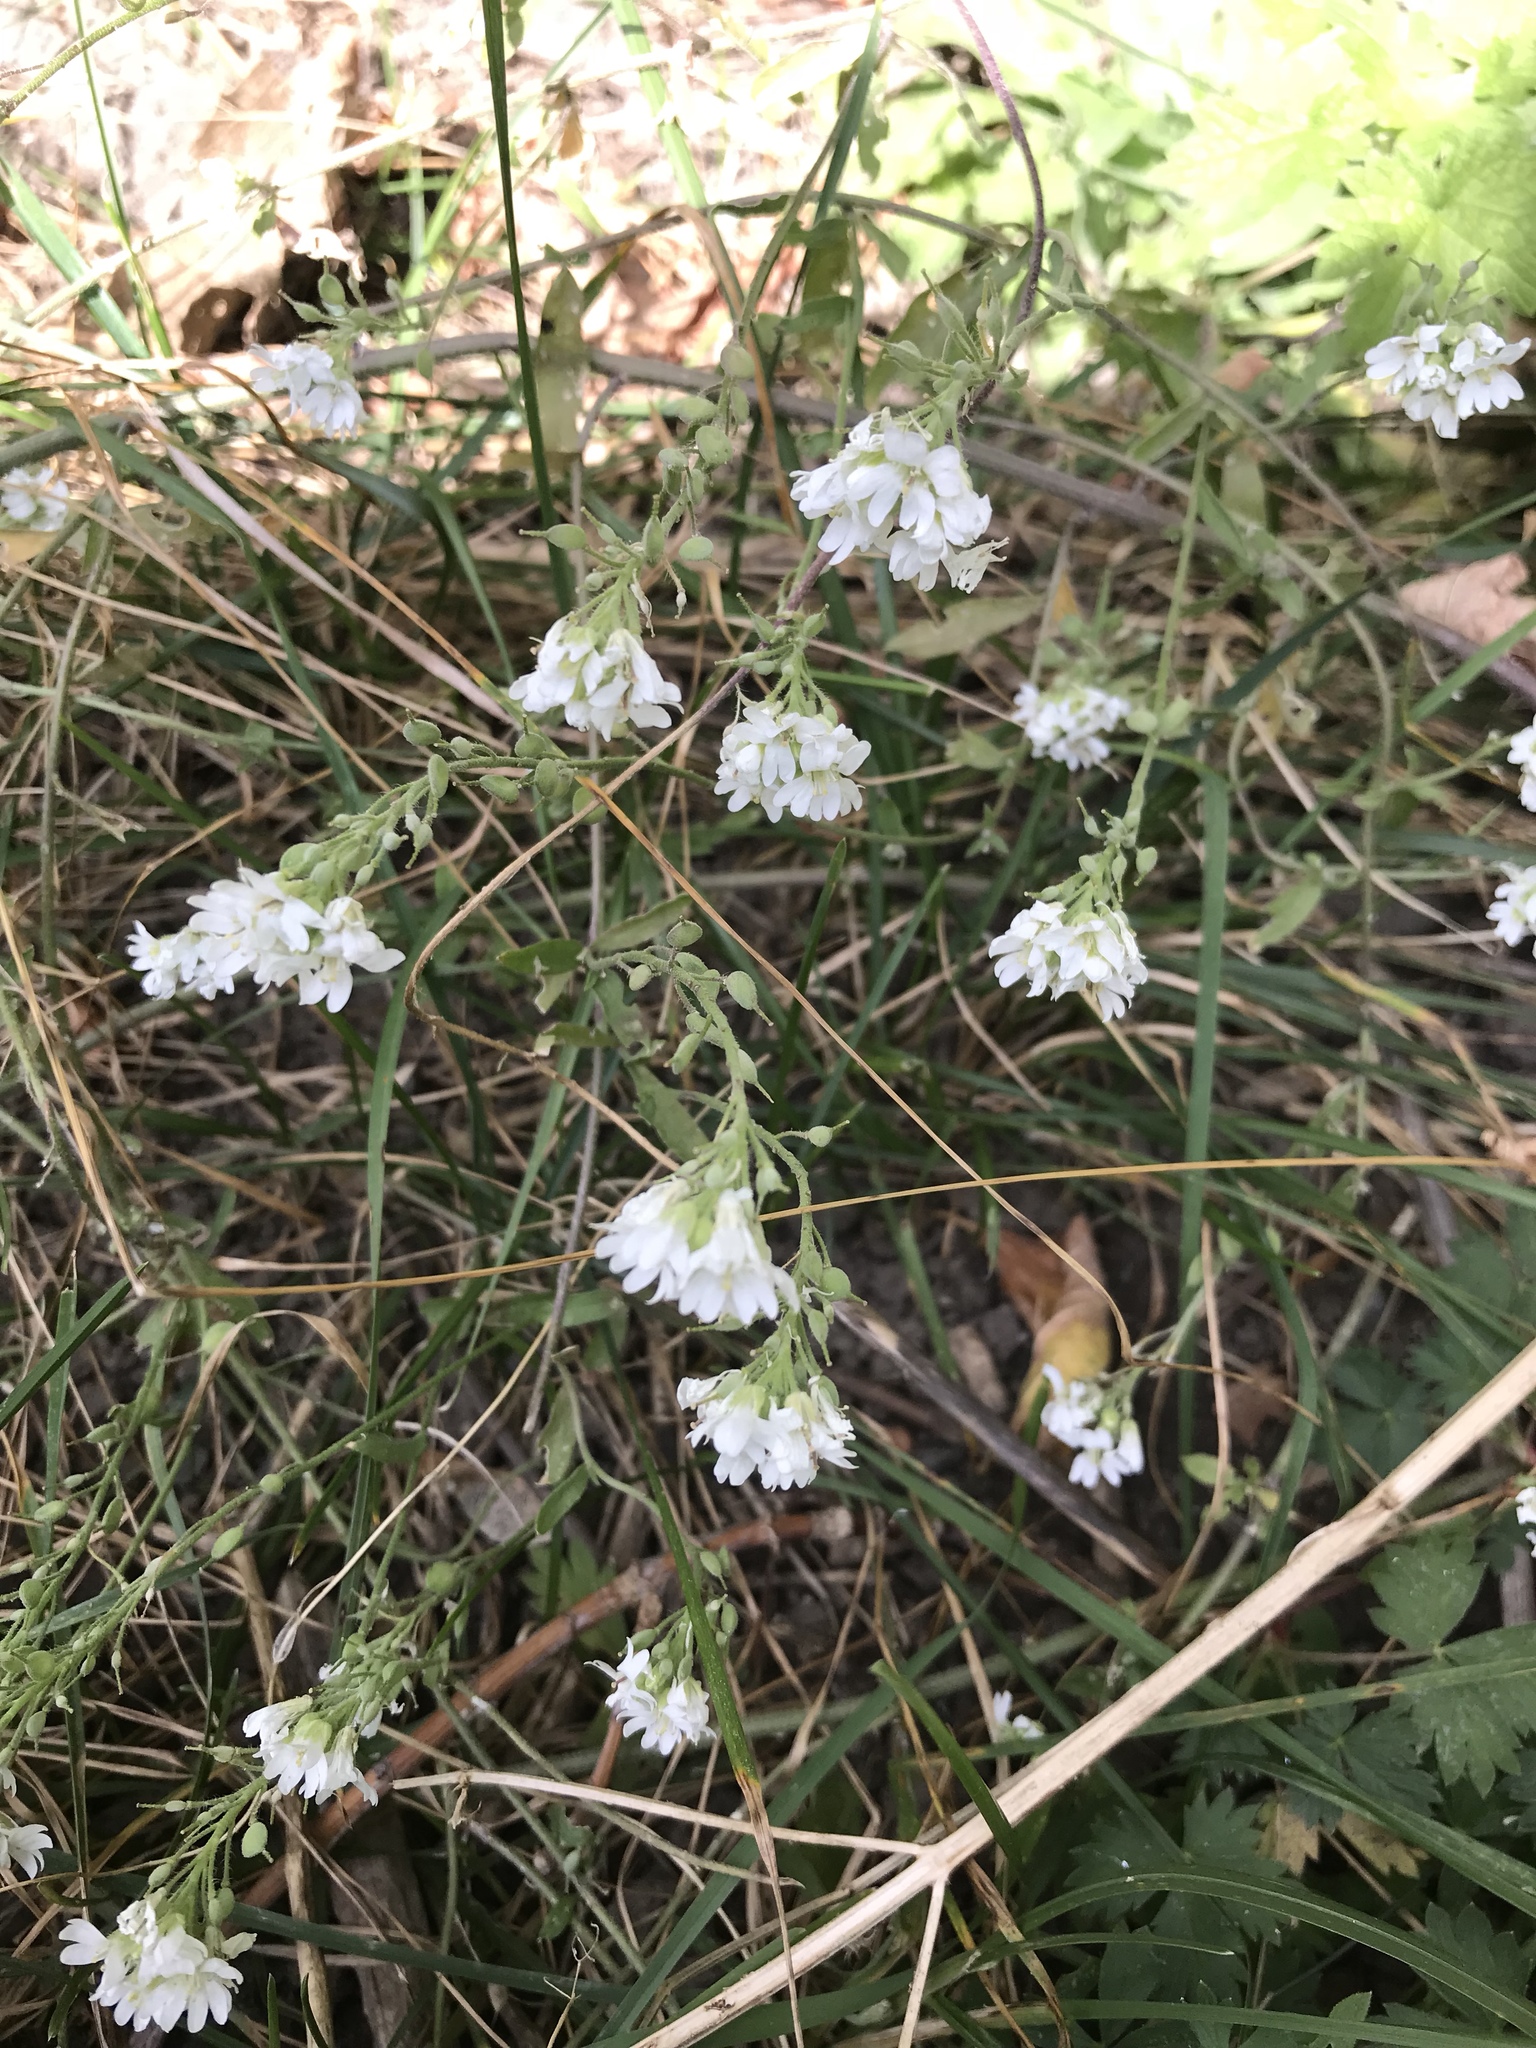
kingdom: Plantae
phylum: Tracheophyta
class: Magnoliopsida
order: Brassicales
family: Brassicaceae
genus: Berteroa
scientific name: Berteroa incana
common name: Hoary alison
